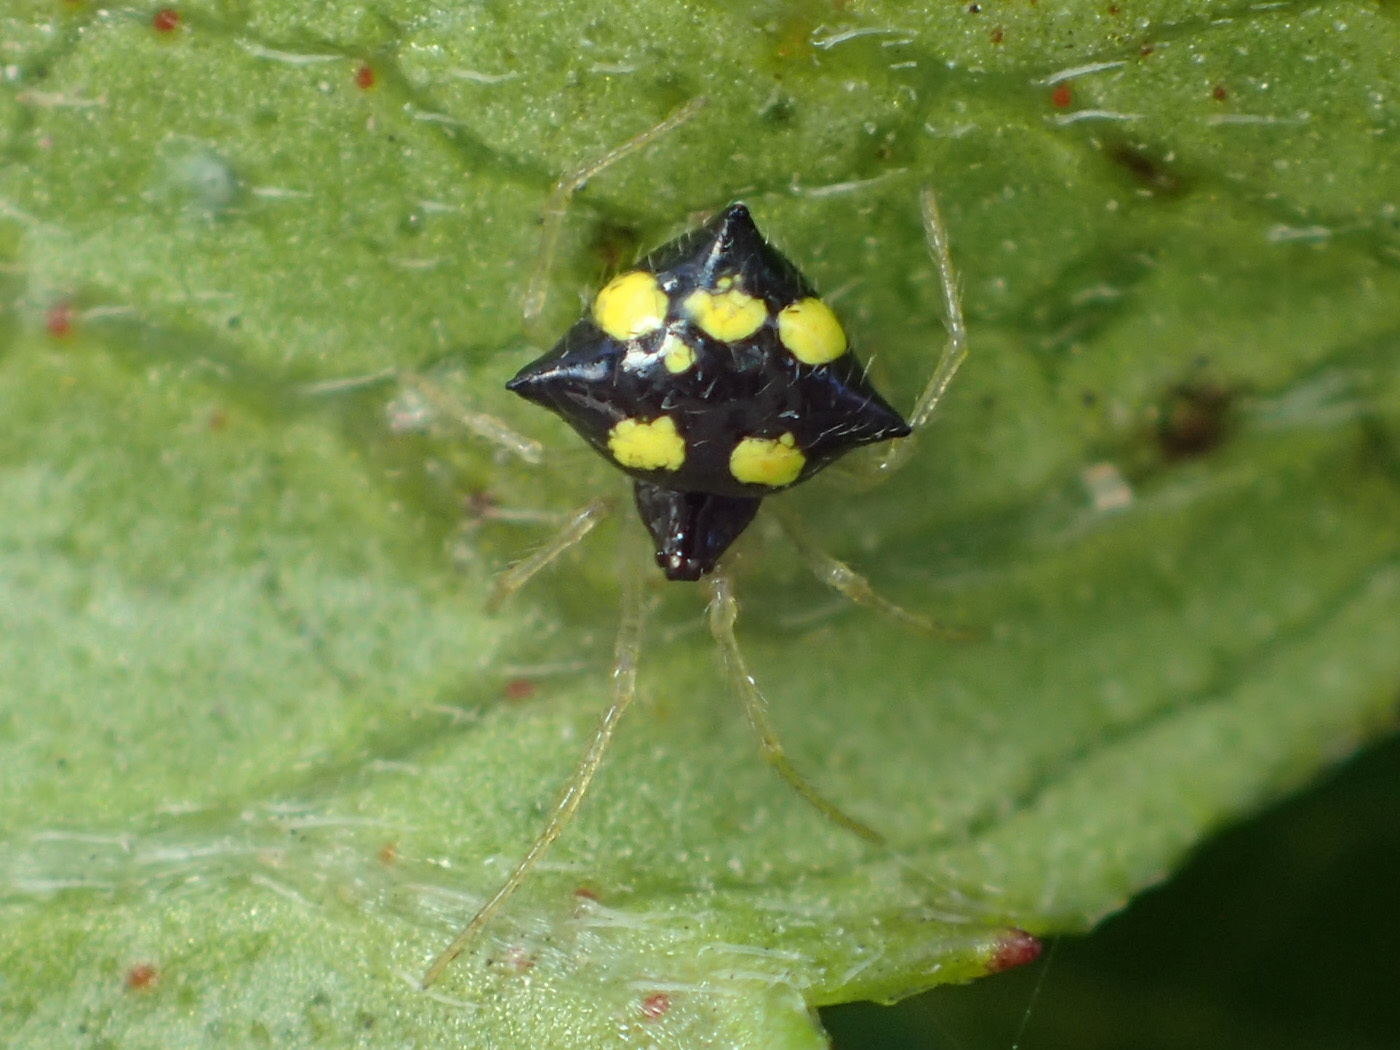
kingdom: Animalia
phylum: Arthropoda
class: Arachnida
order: Araneae
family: Theridiidae
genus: Theridula
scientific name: Theridula gonygaster
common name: Cobweb spiders
